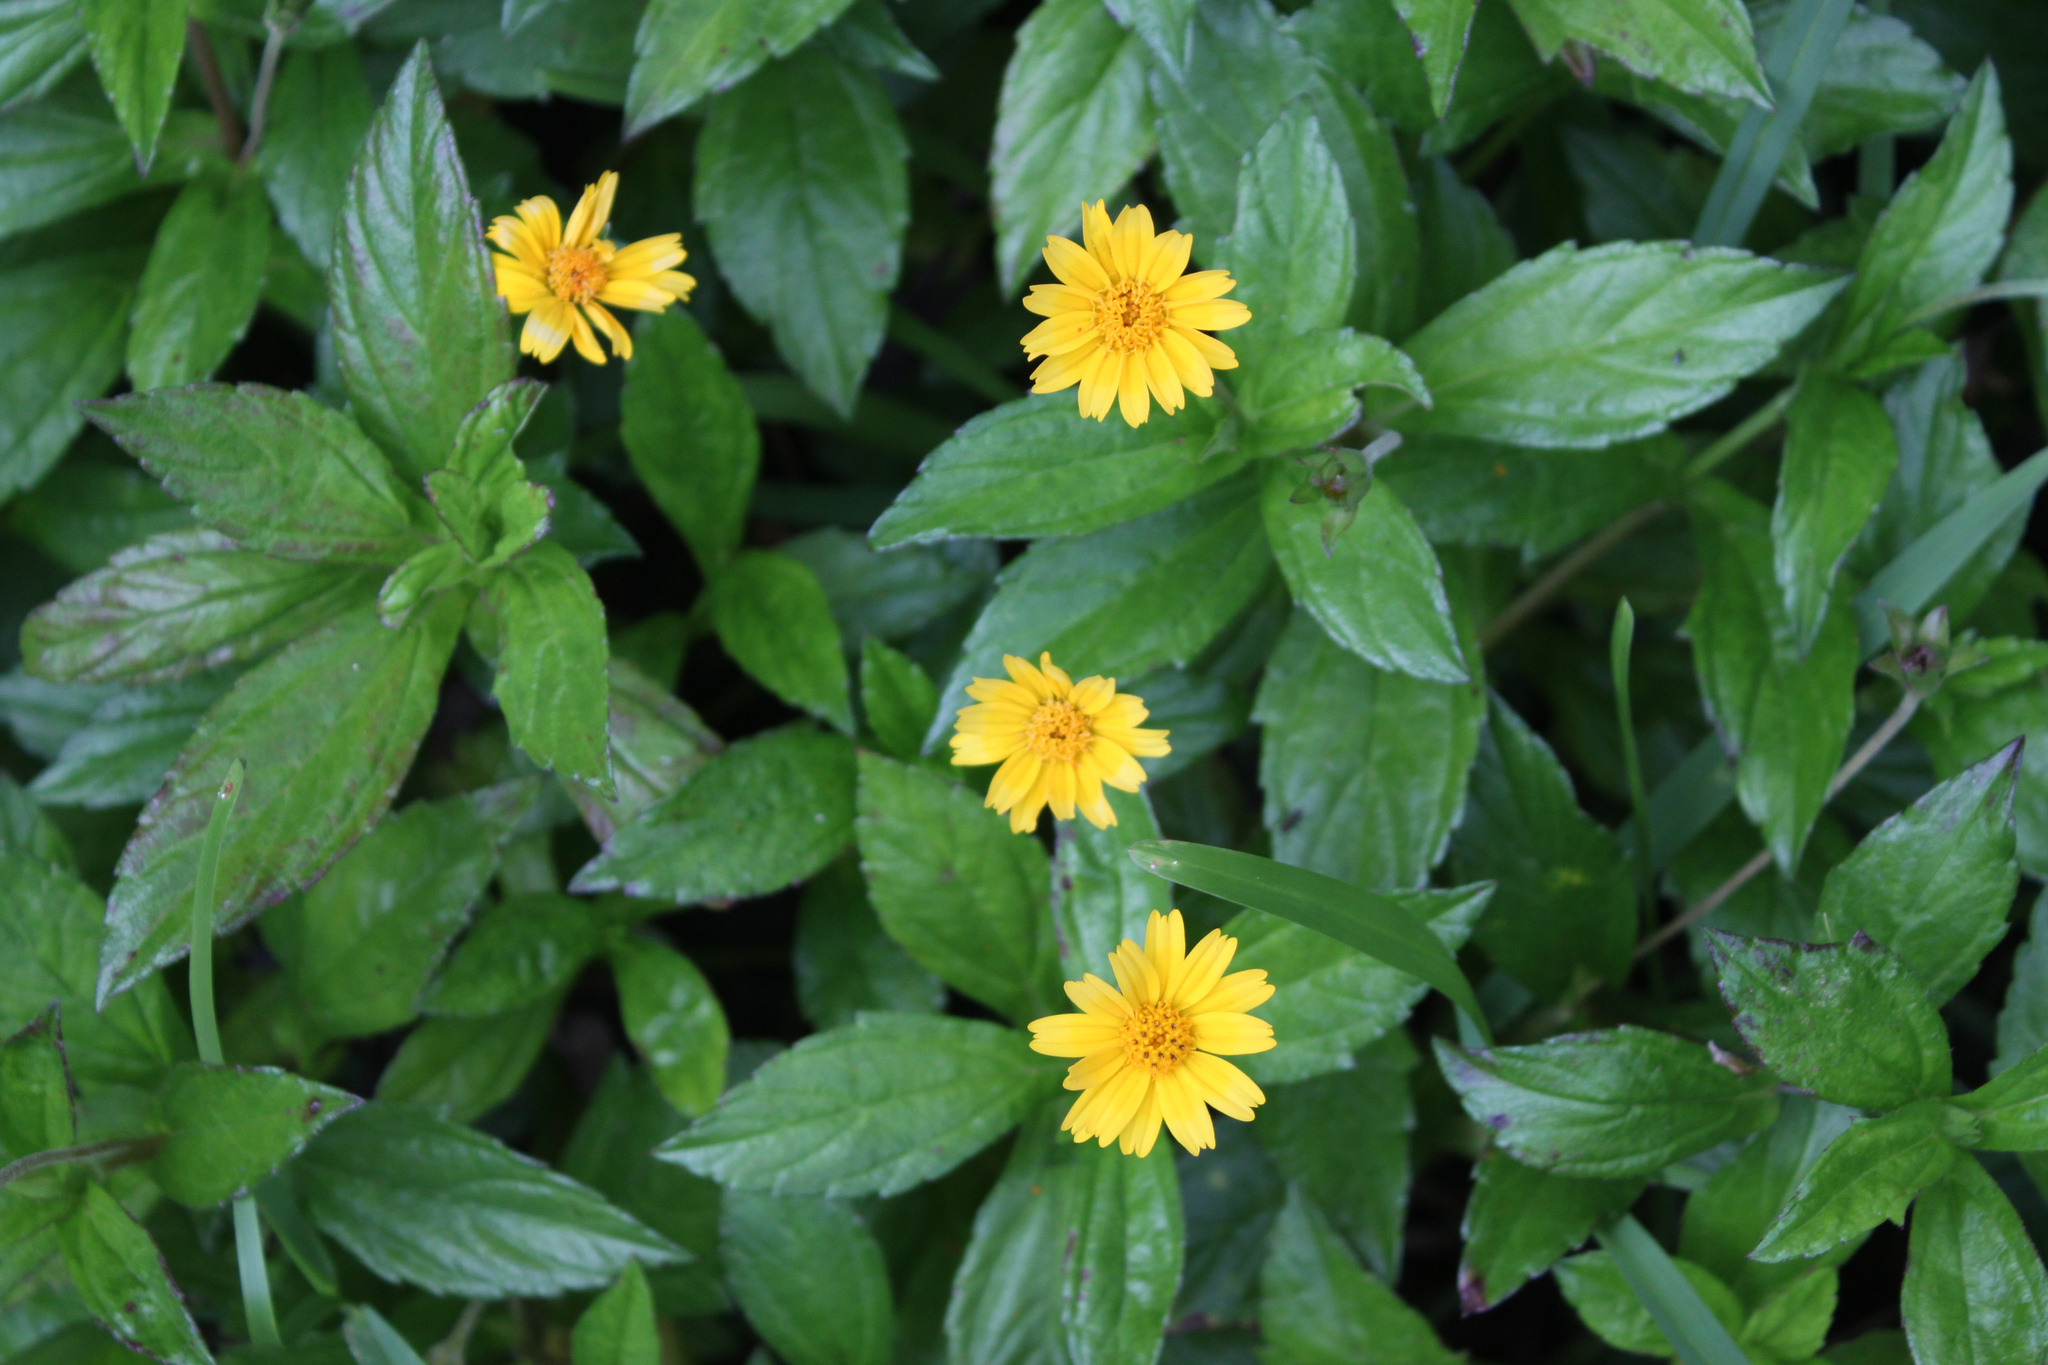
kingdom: Plantae
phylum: Tracheophyta
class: Magnoliopsida
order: Asterales
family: Asteraceae
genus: Sphagneticola
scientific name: Sphagneticola trilobata
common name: Bay biscayne creeping-oxeye
